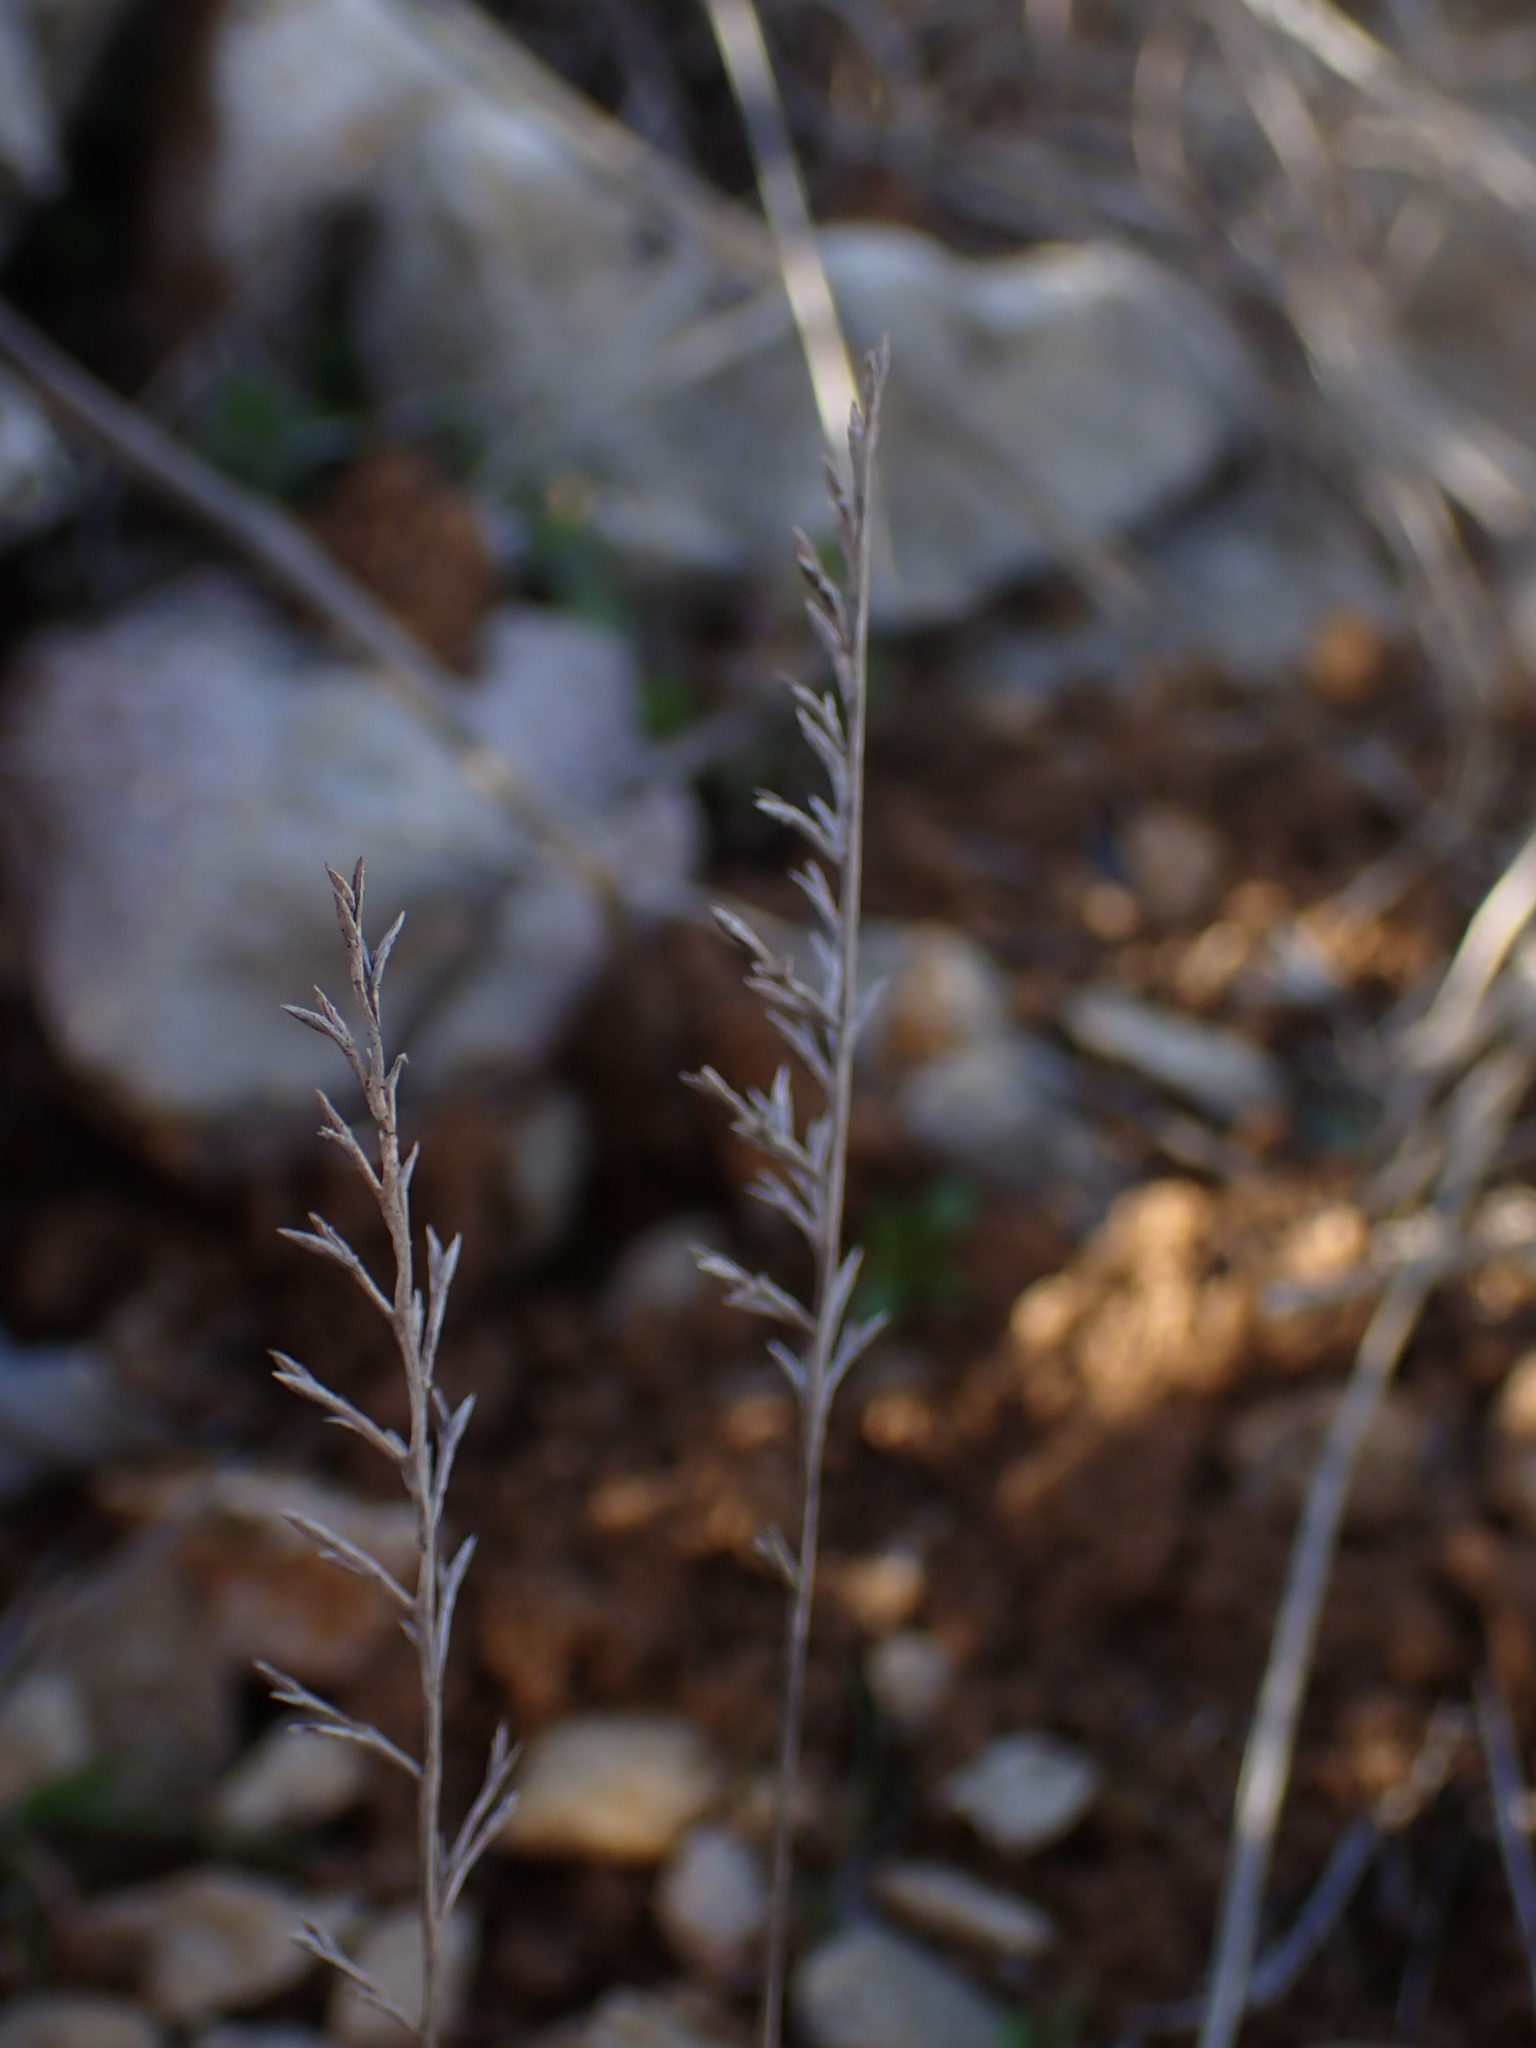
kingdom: Plantae
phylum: Tracheophyta
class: Liliopsida
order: Poales
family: Poaceae
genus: Catapodium
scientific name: Catapodium rigidum
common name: Fern-grass
